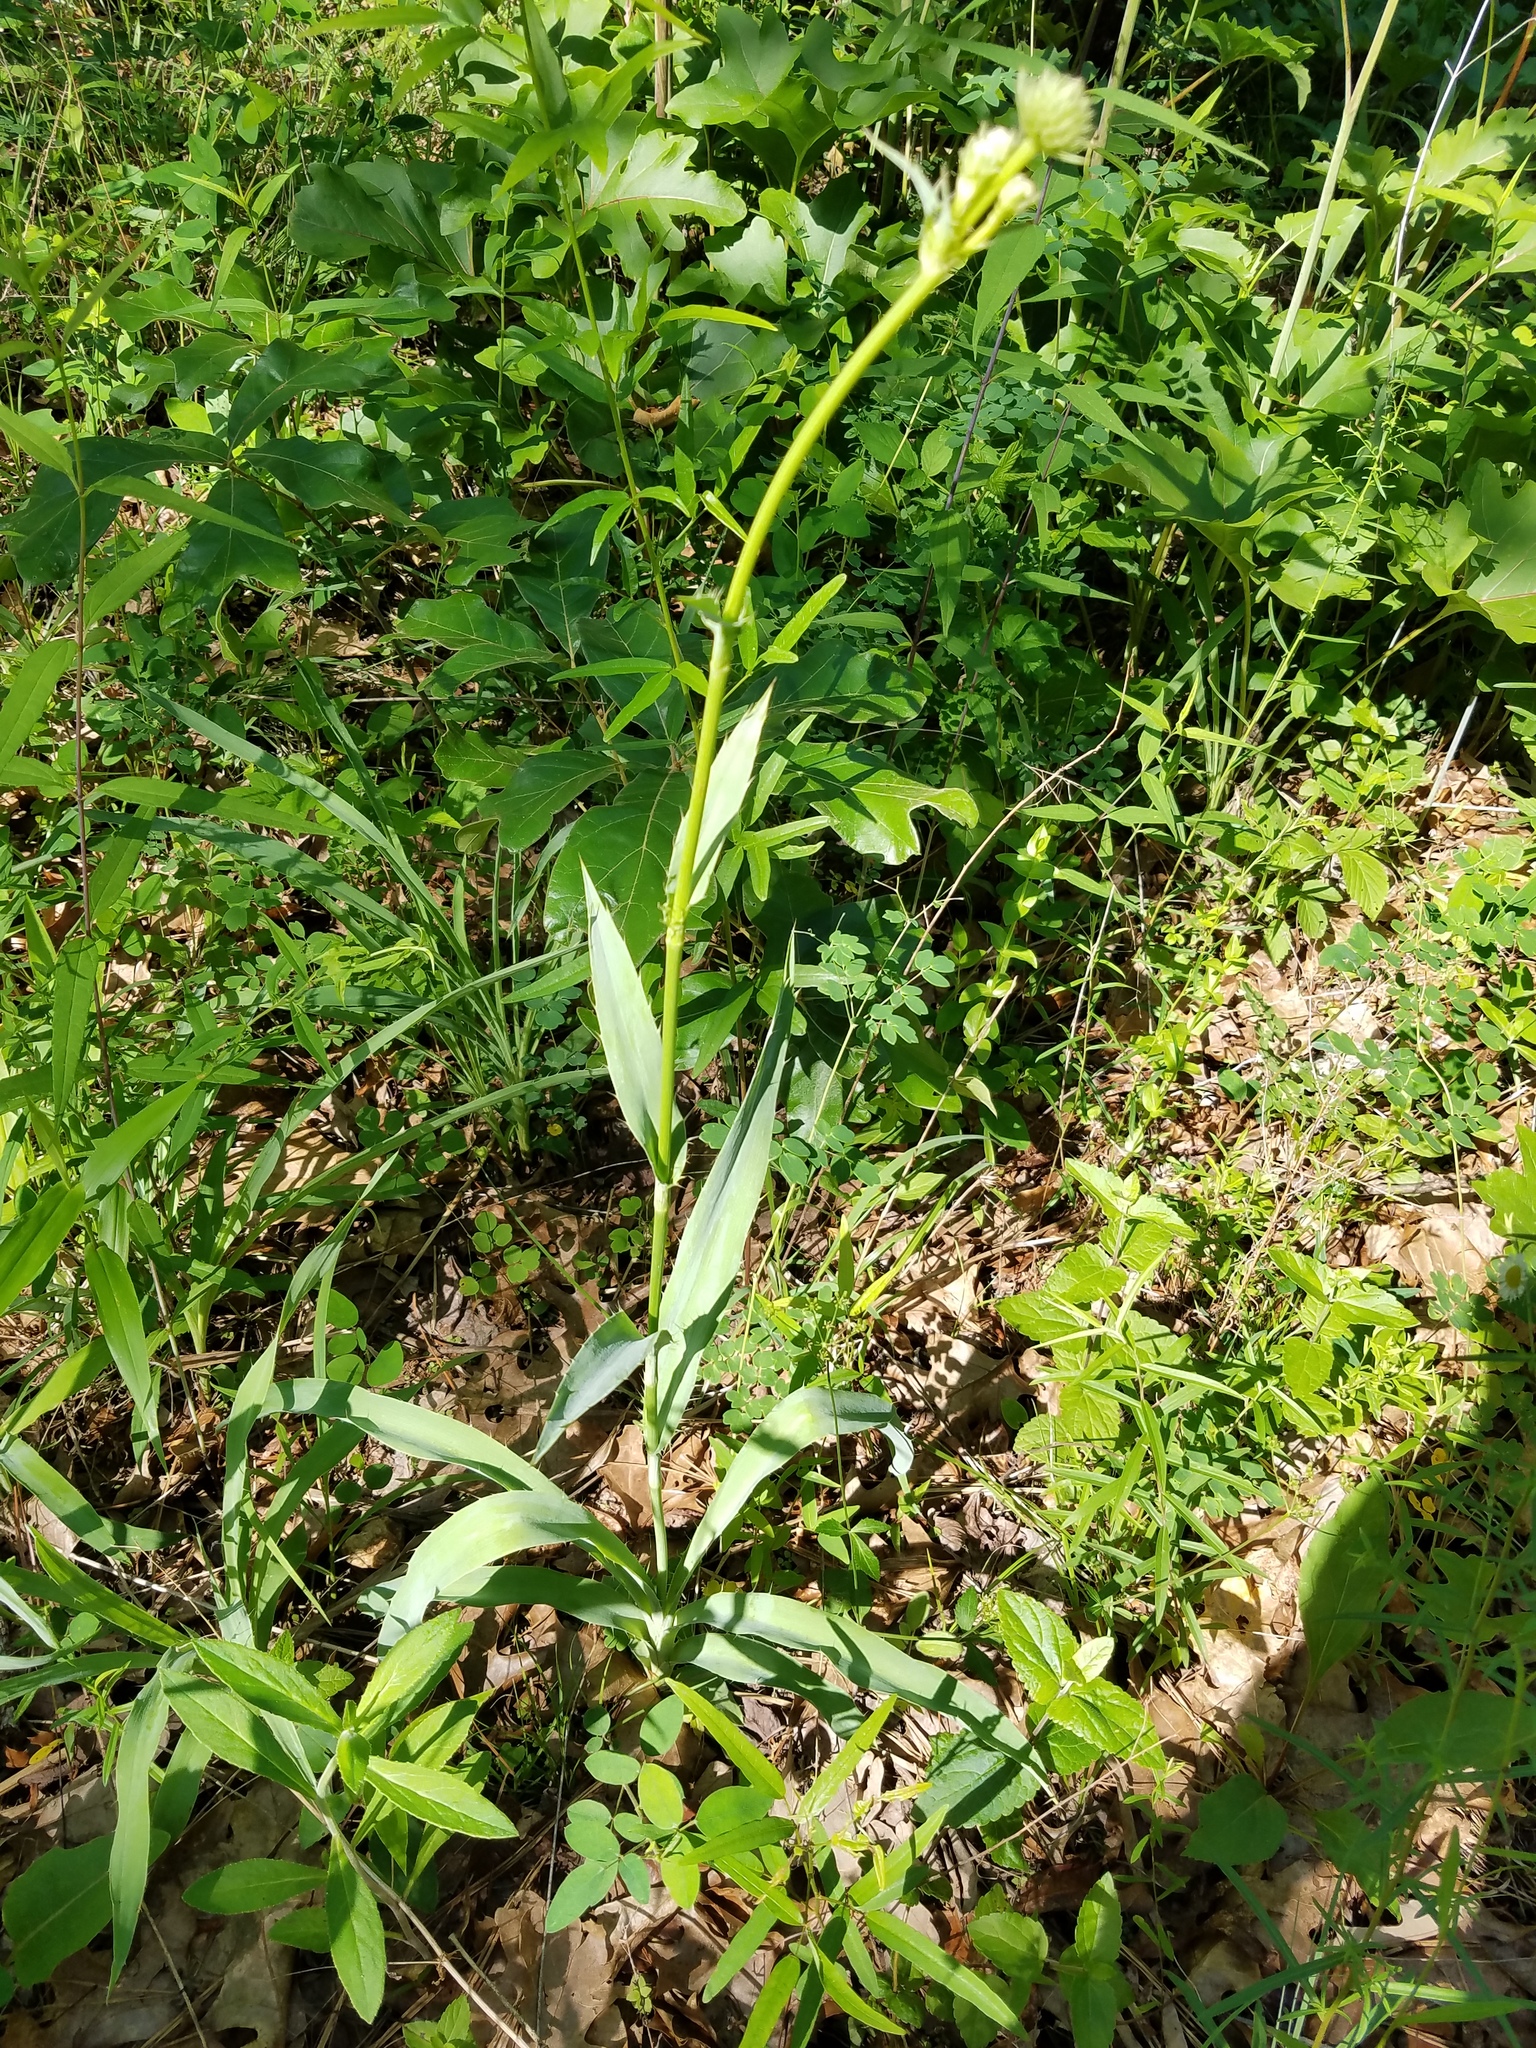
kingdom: Plantae
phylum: Tracheophyta
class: Magnoliopsida
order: Apiales
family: Apiaceae
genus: Eryngium
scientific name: Eryngium yuccifolium
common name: Button eryngo
